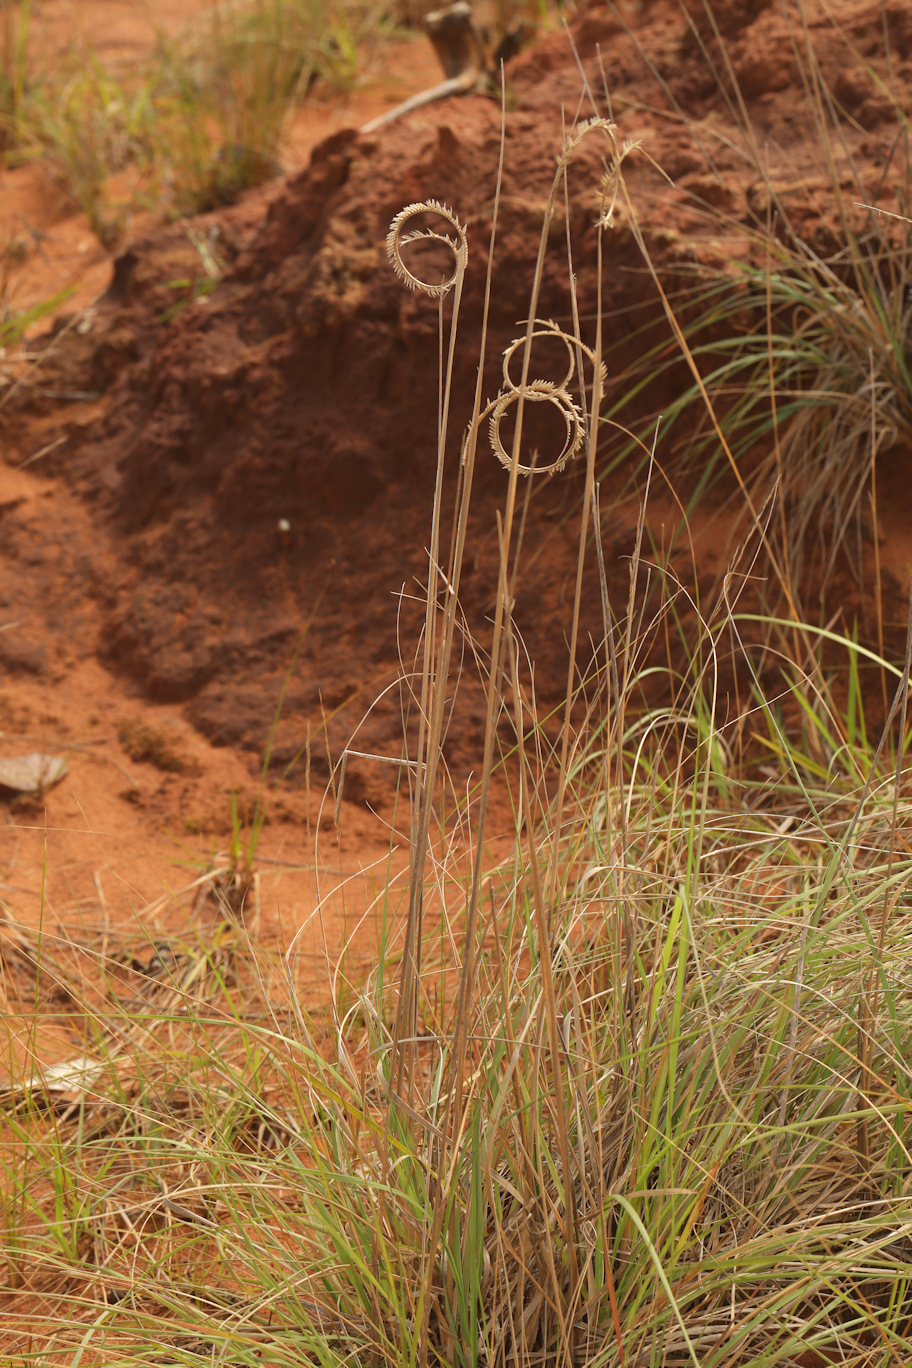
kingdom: Plantae
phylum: Tracheophyta
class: Liliopsida
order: Poales
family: Poaceae
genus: Ctenium
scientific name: Ctenium concinnum
